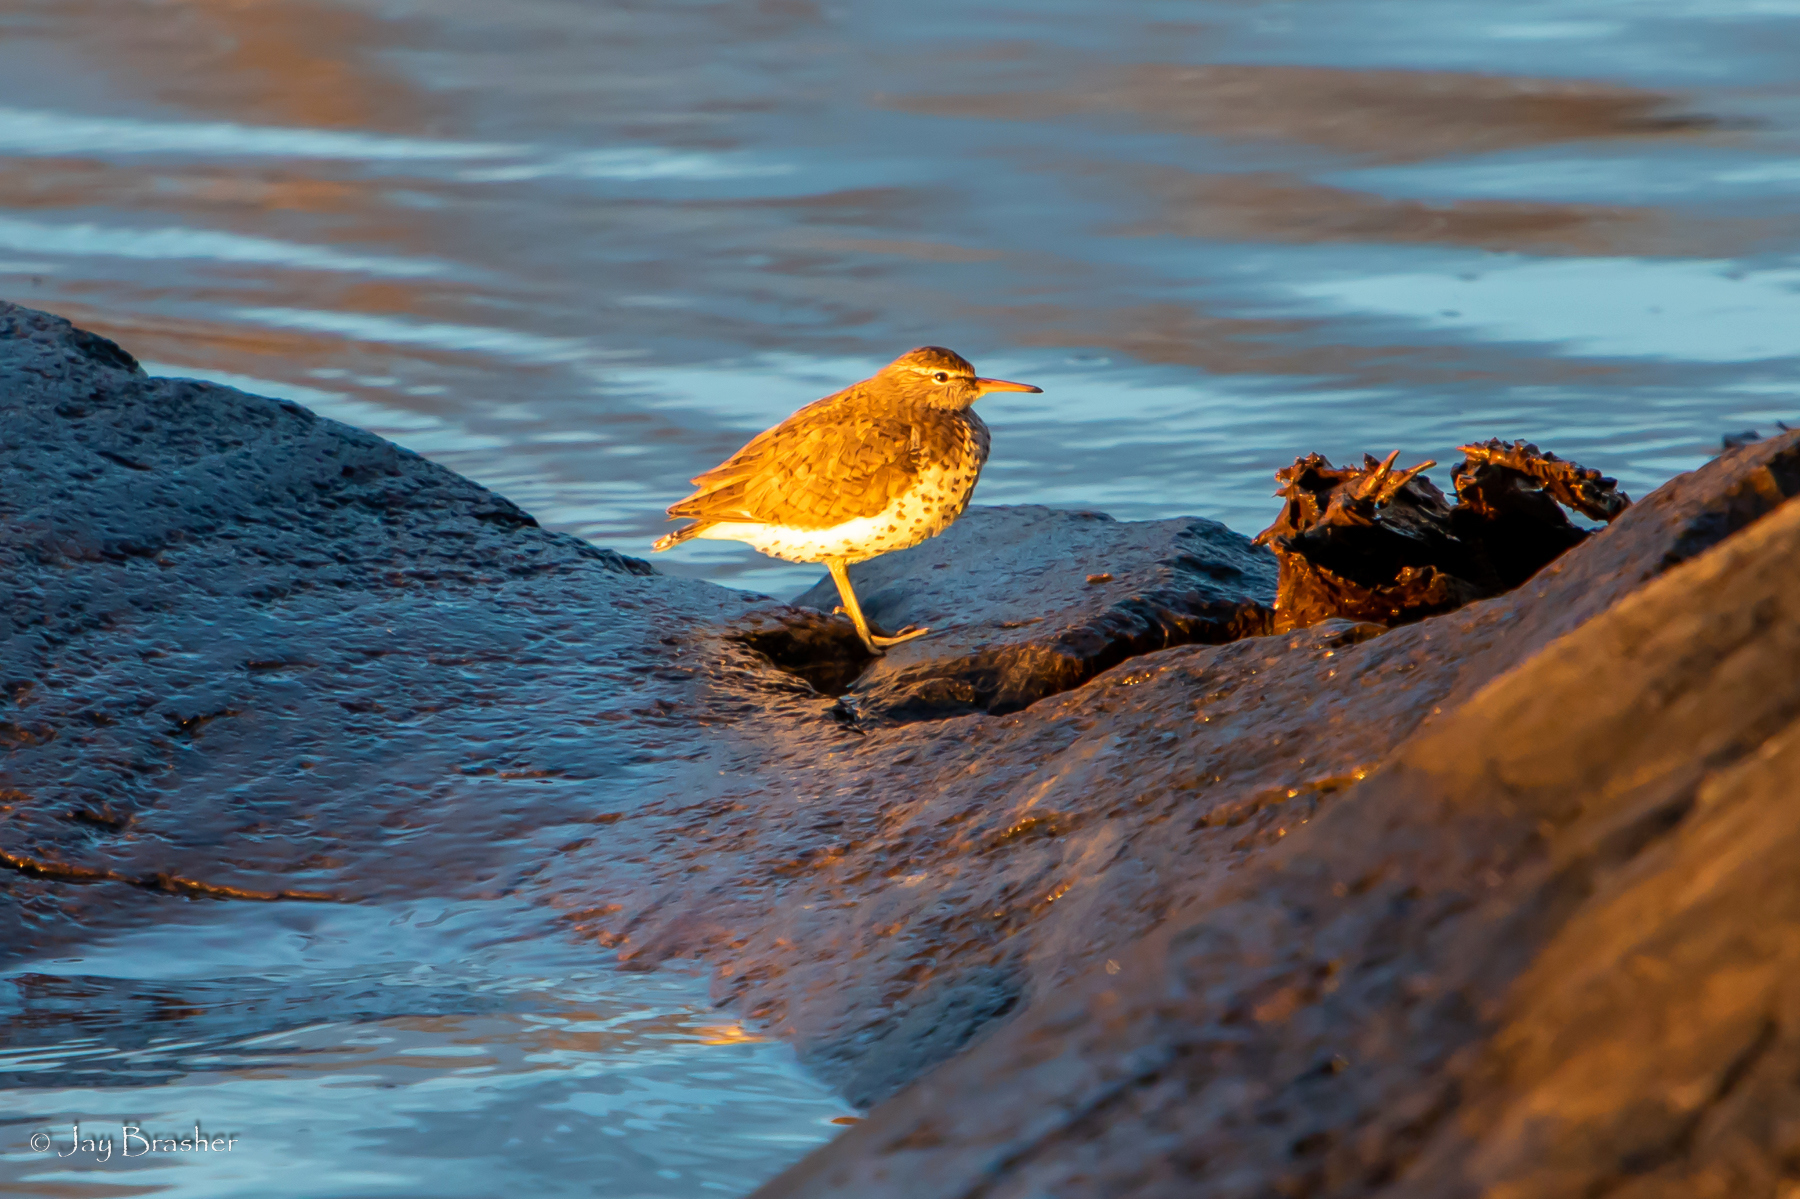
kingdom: Animalia
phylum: Chordata
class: Aves
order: Charadriiformes
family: Scolopacidae
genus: Actitis
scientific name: Actitis macularius
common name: Spotted sandpiper
